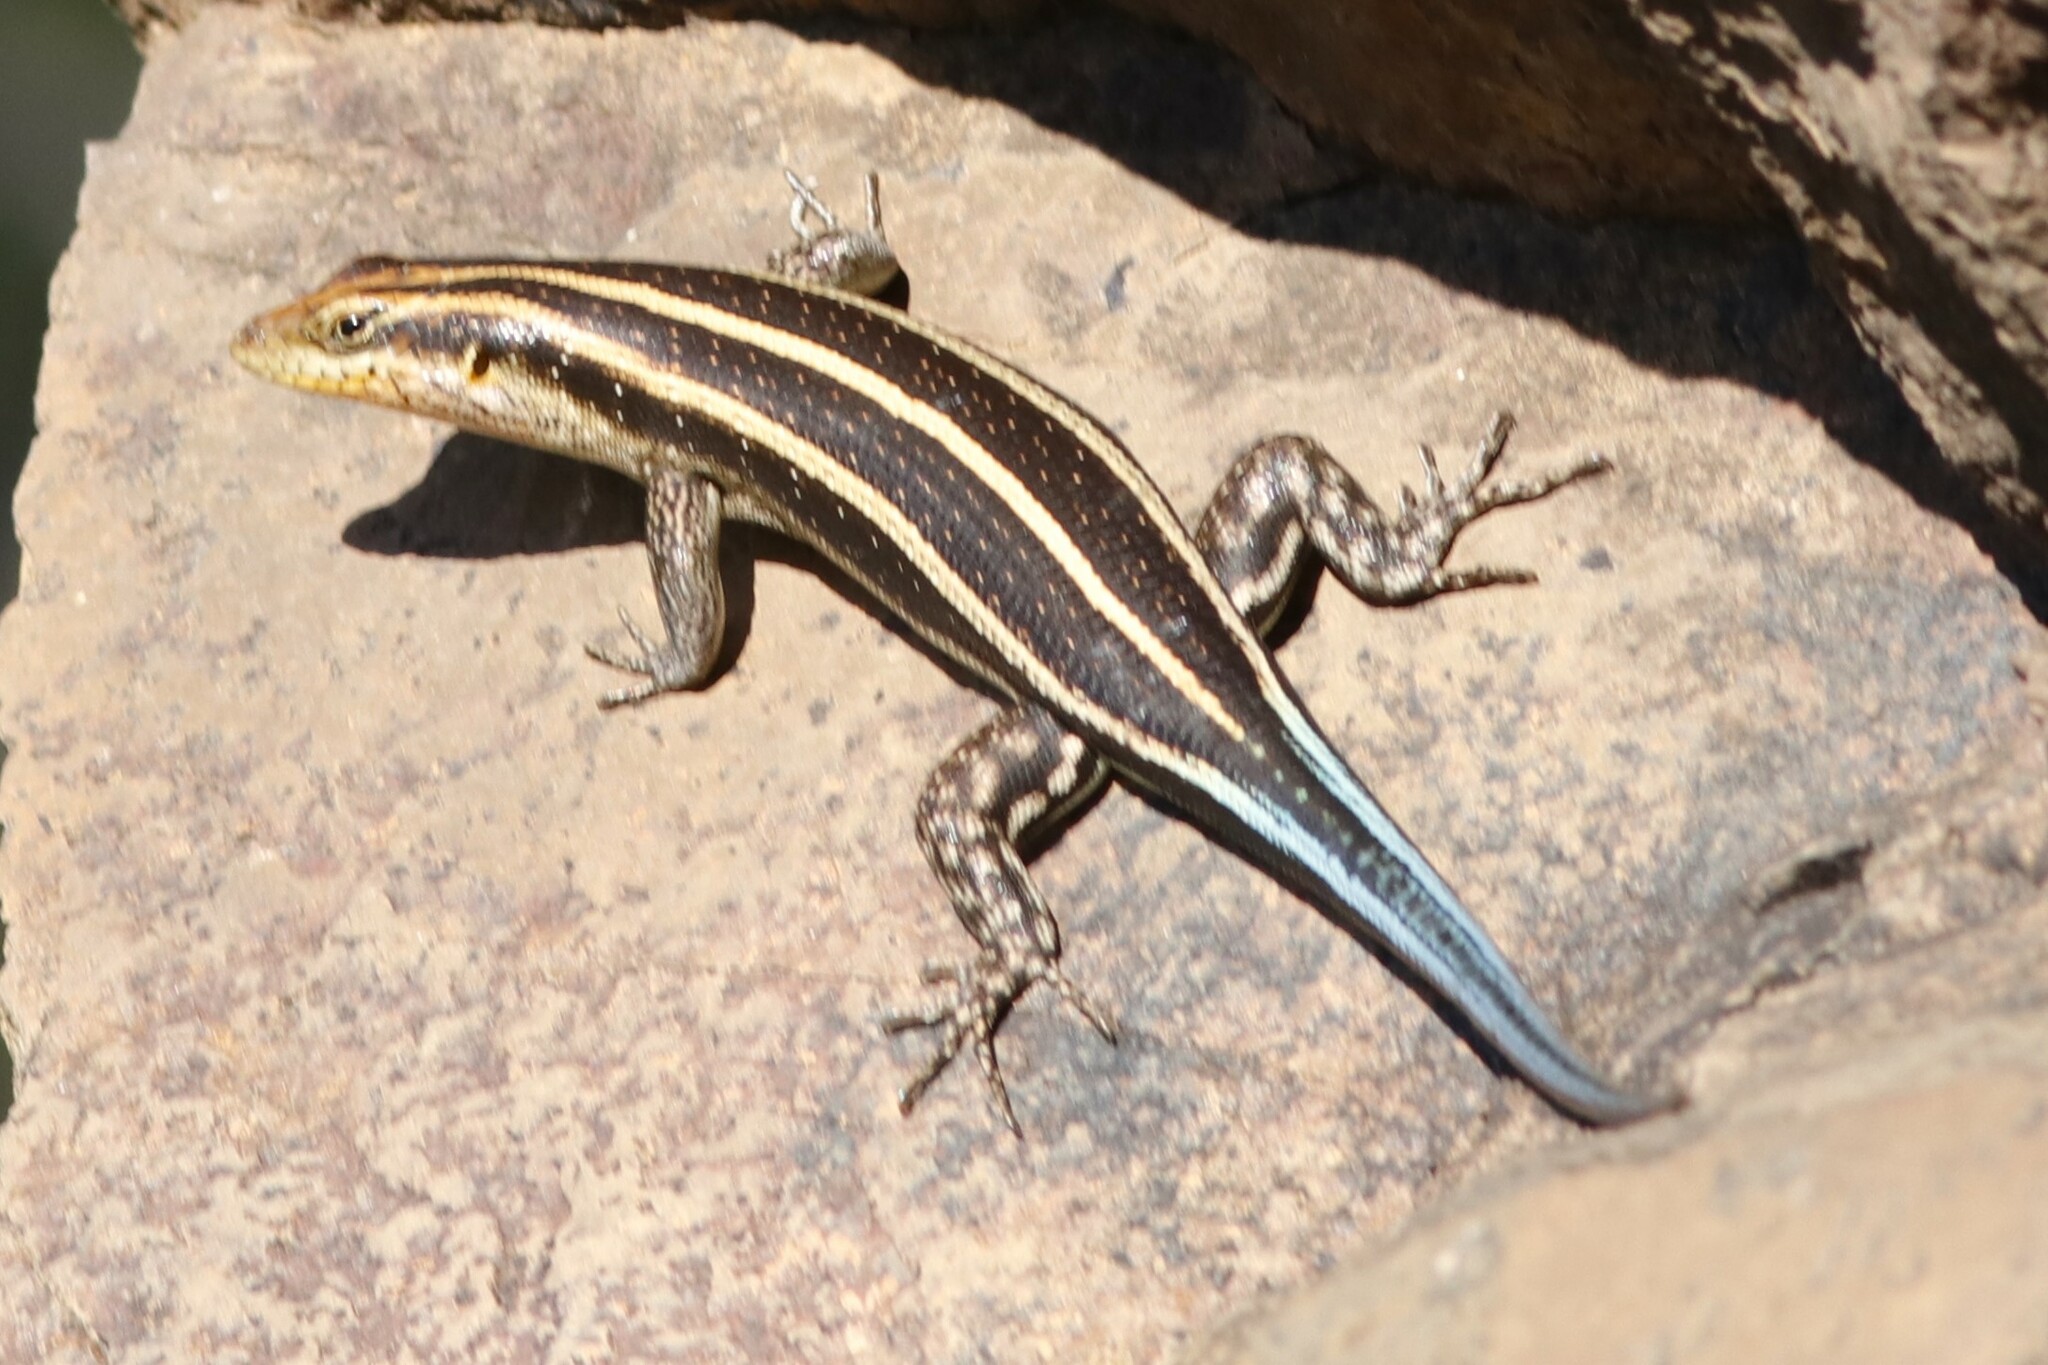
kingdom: Animalia
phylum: Chordata
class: Squamata
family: Scincidae
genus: Trachylepis
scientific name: Trachylepis margaritifera
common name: Rainbow skink
